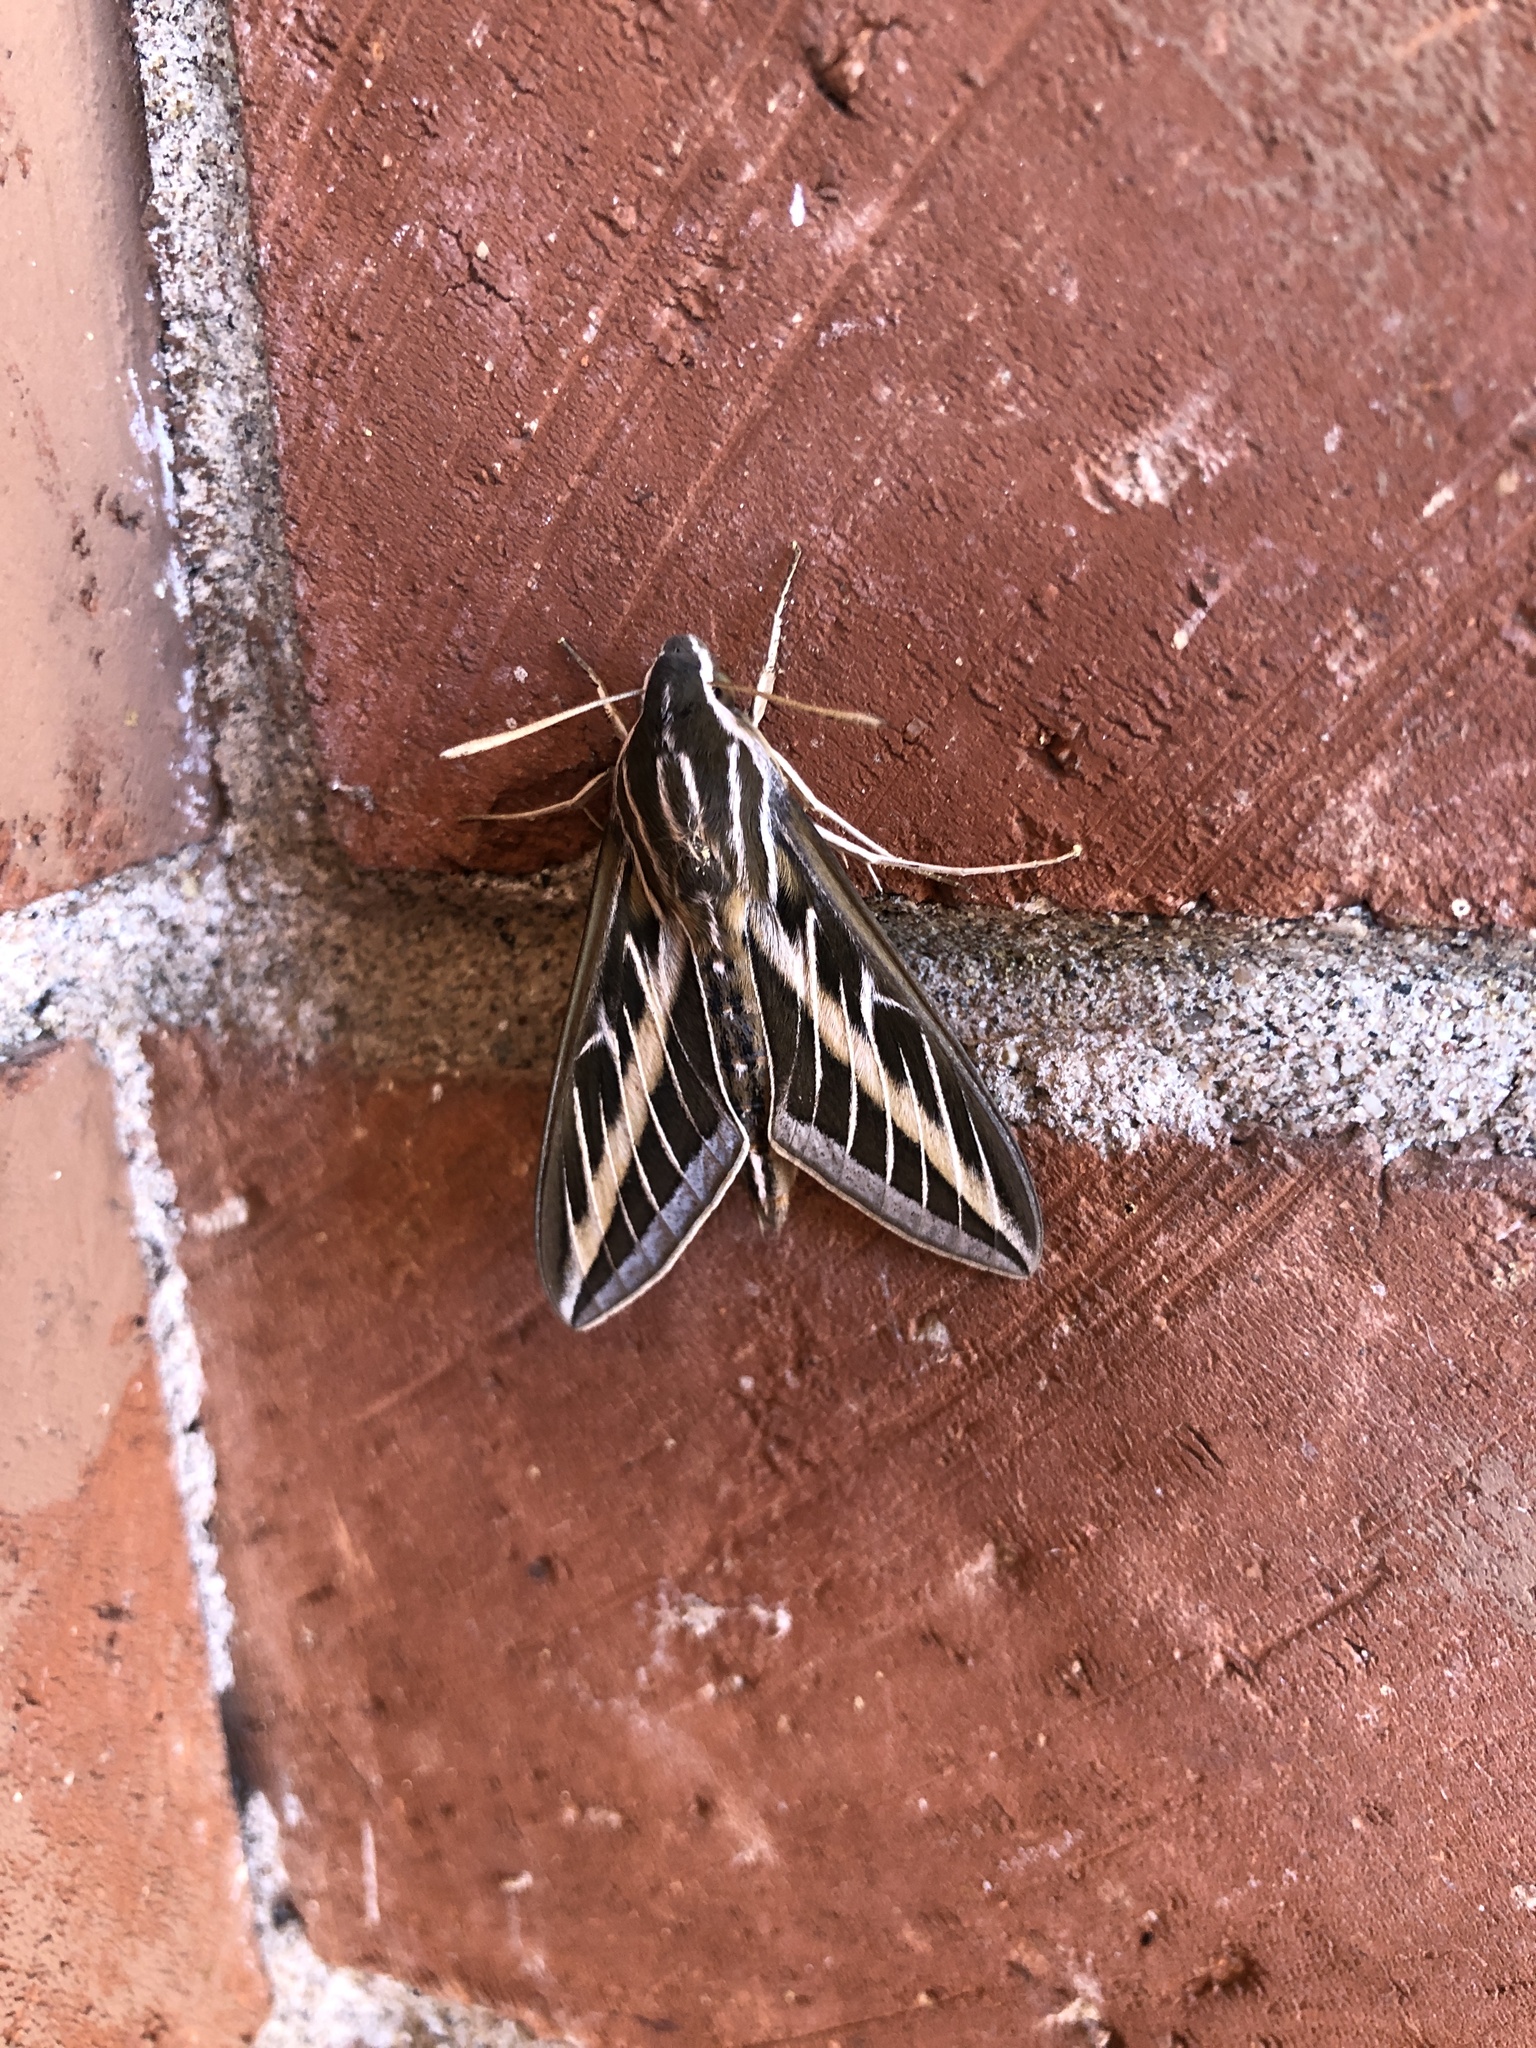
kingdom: Animalia
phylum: Arthropoda
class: Insecta
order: Lepidoptera
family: Sphingidae
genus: Hyles
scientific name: Hyles lineata
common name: White-lined sphinx
